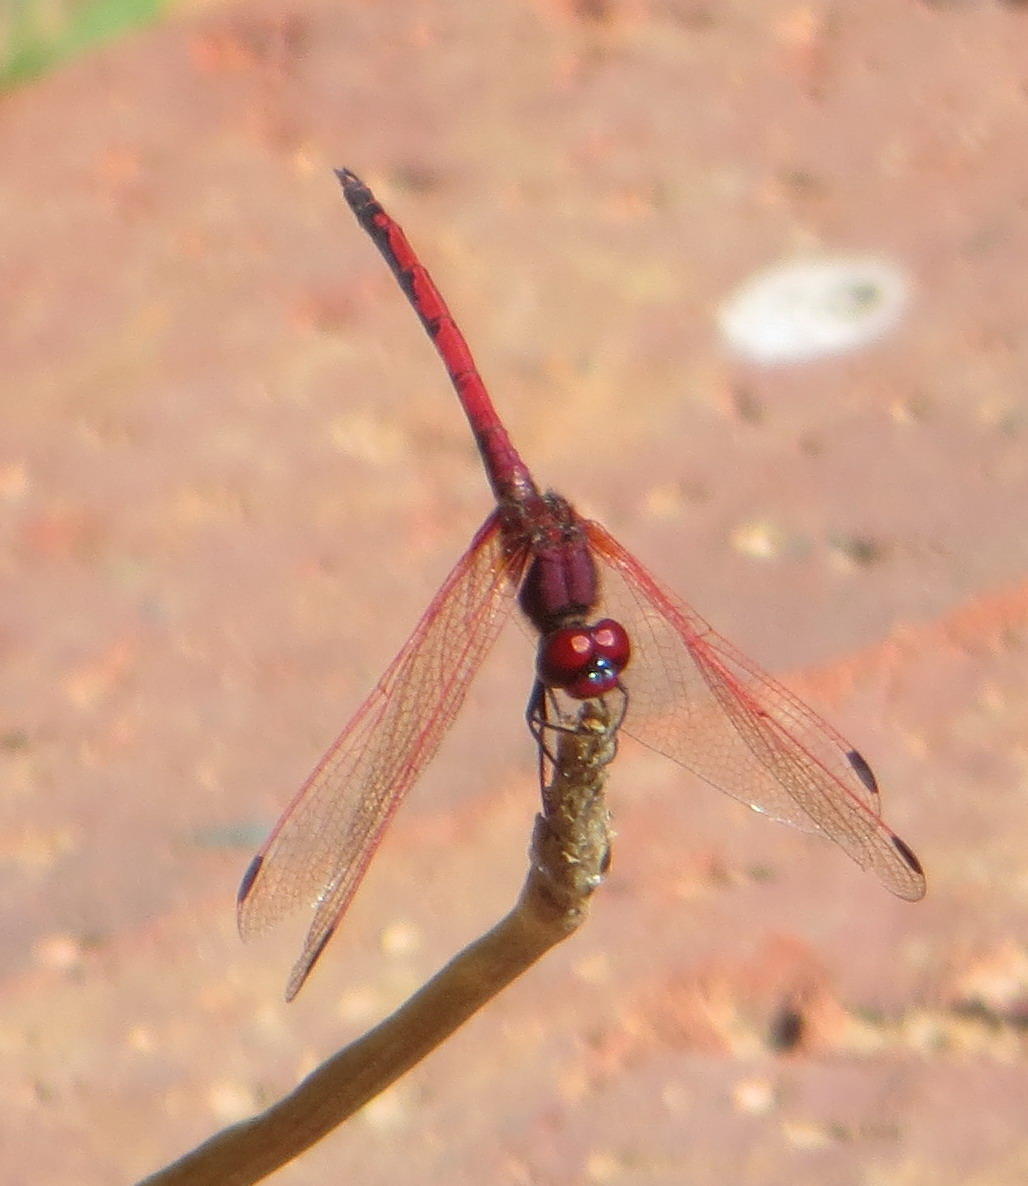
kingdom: Animalia
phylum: Arthropoda
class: Insecta
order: Odonata
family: Libellulidae
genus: Trithemis
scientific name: Trithemis arteriosa
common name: Red-veined dropwing
